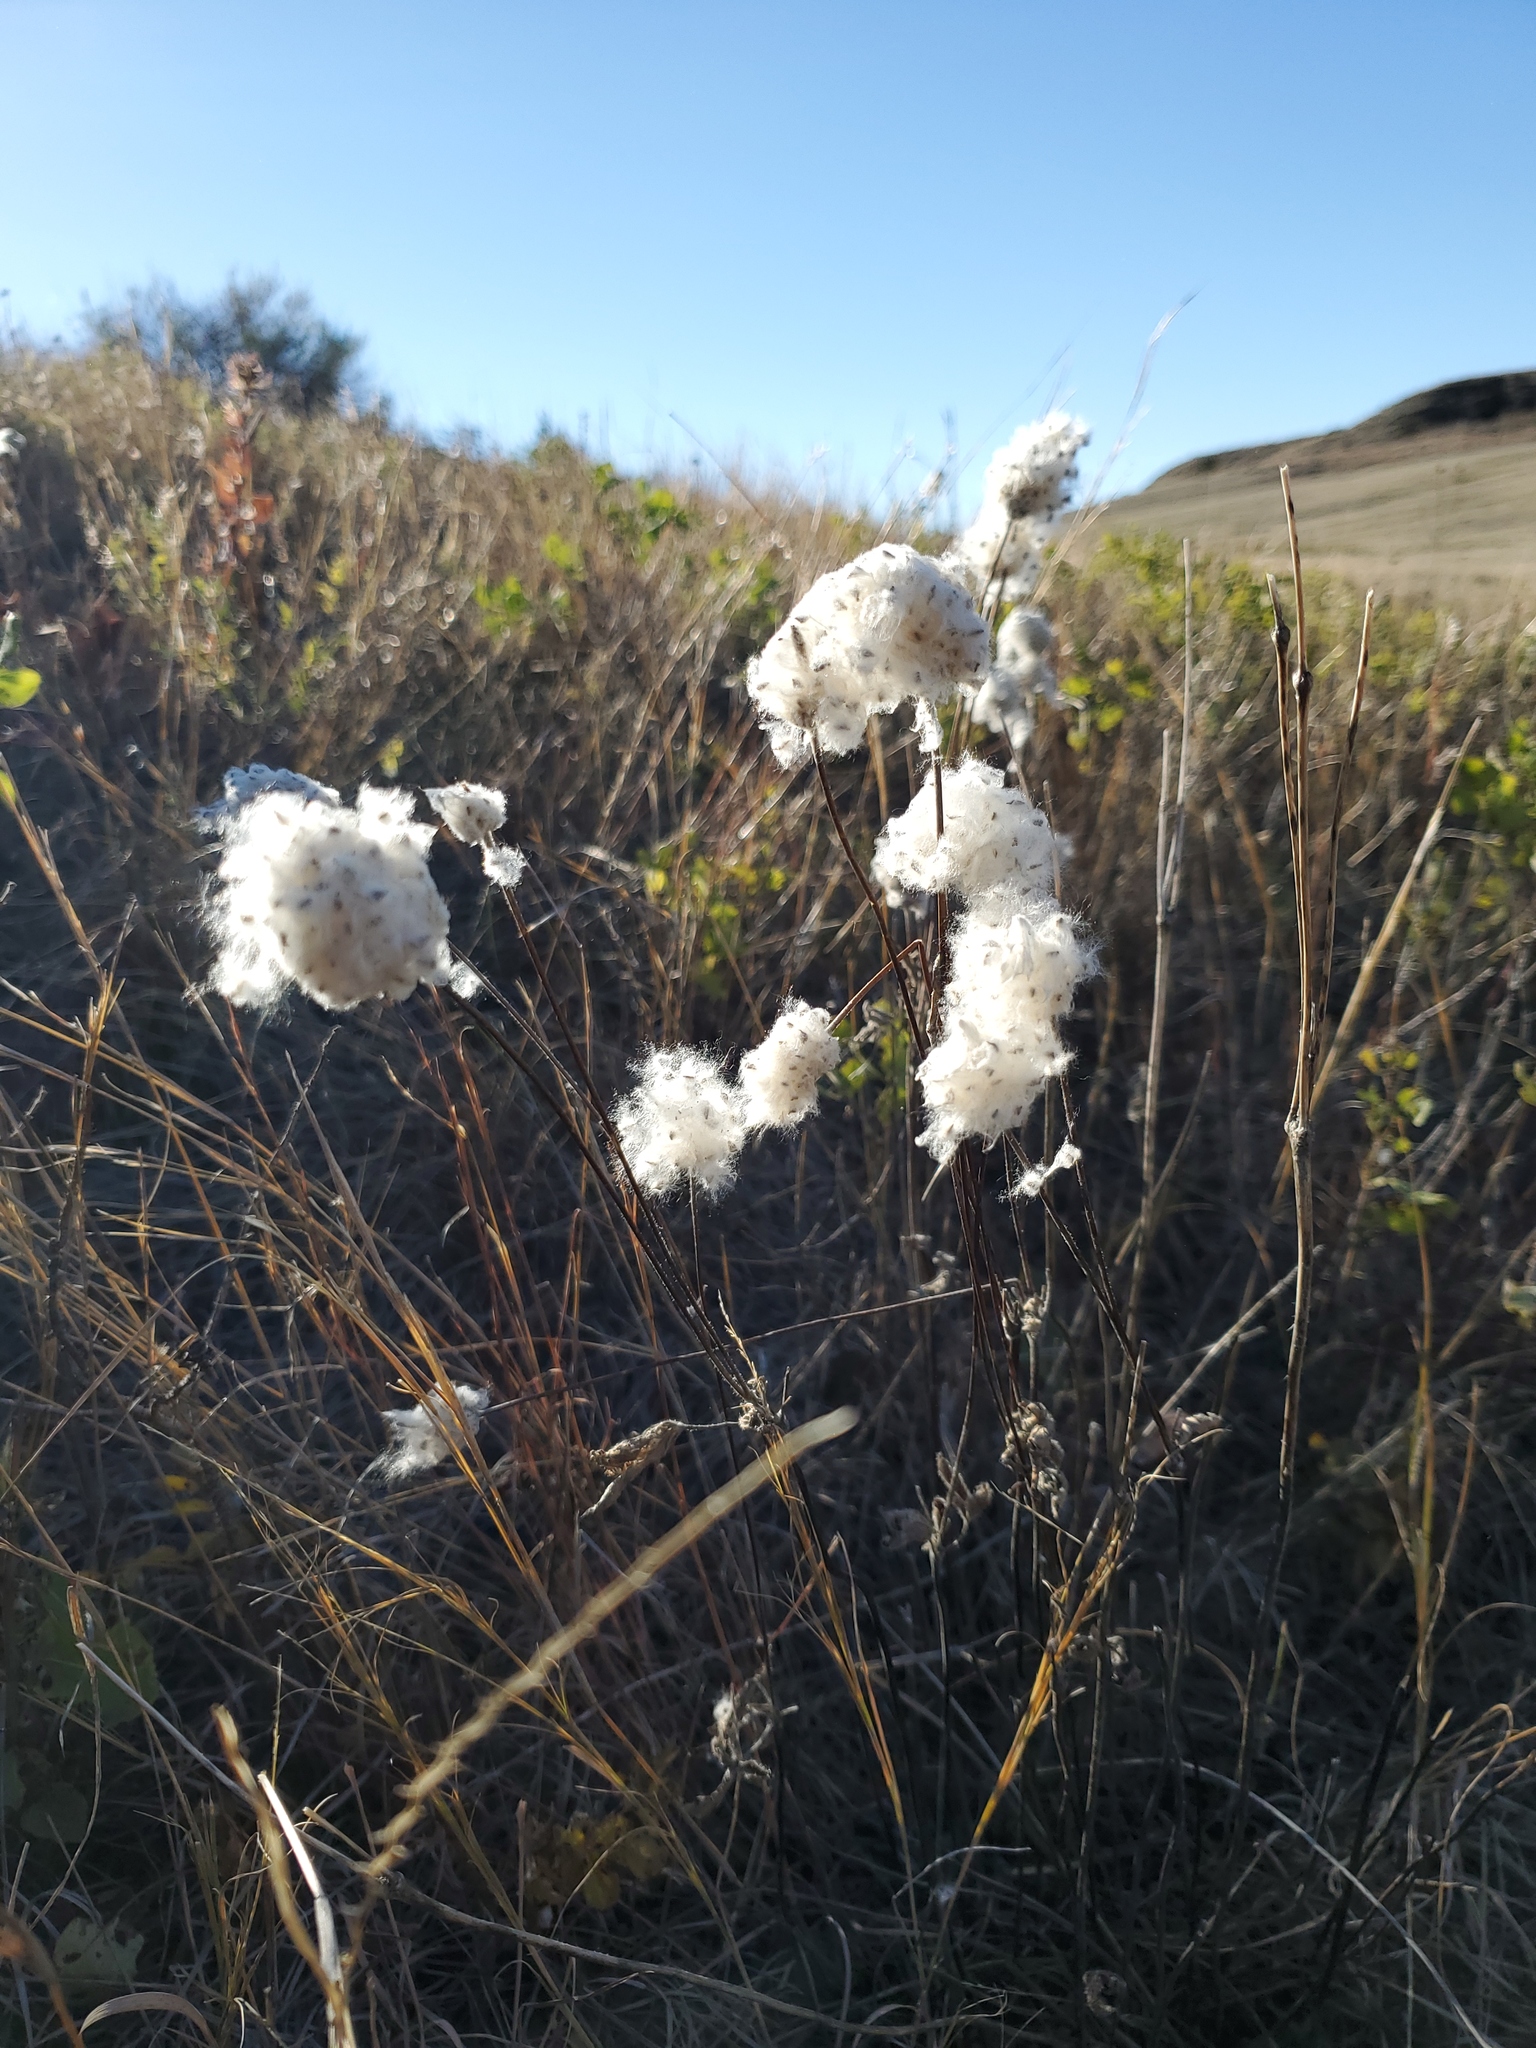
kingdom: Plantae
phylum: Tracheophyta
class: Magnoliopsida
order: Ranunculales
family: Ranunculaceae
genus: Anemone
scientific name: Anemone cylindrica
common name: Candle anemone
